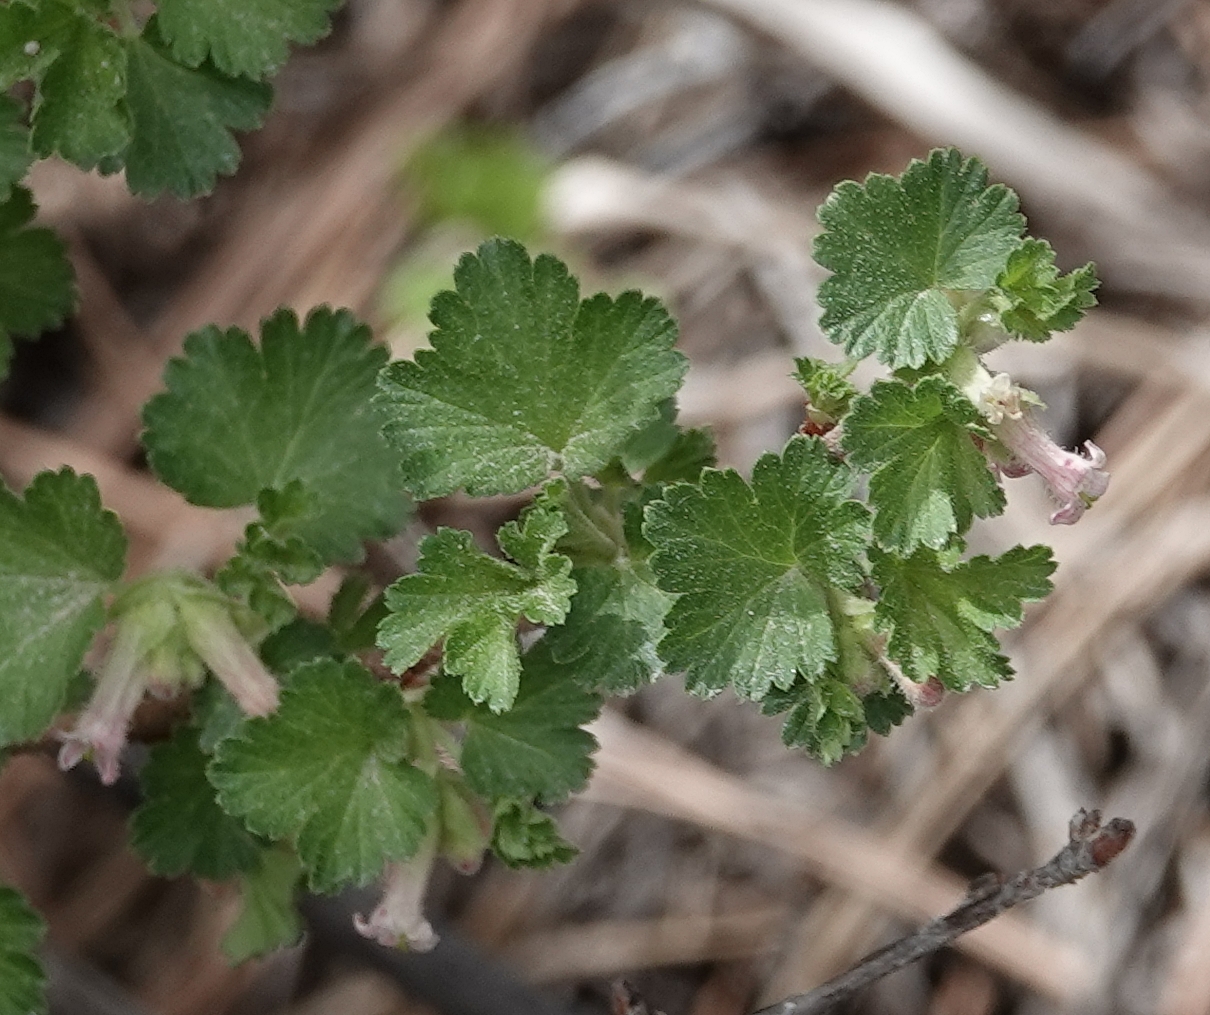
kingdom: Plantae
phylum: Tracheophyta
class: Magnoliopsida
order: Saxifragales
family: Grossulariaceae
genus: Ribes
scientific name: Ribes cereum
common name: Wax currant
